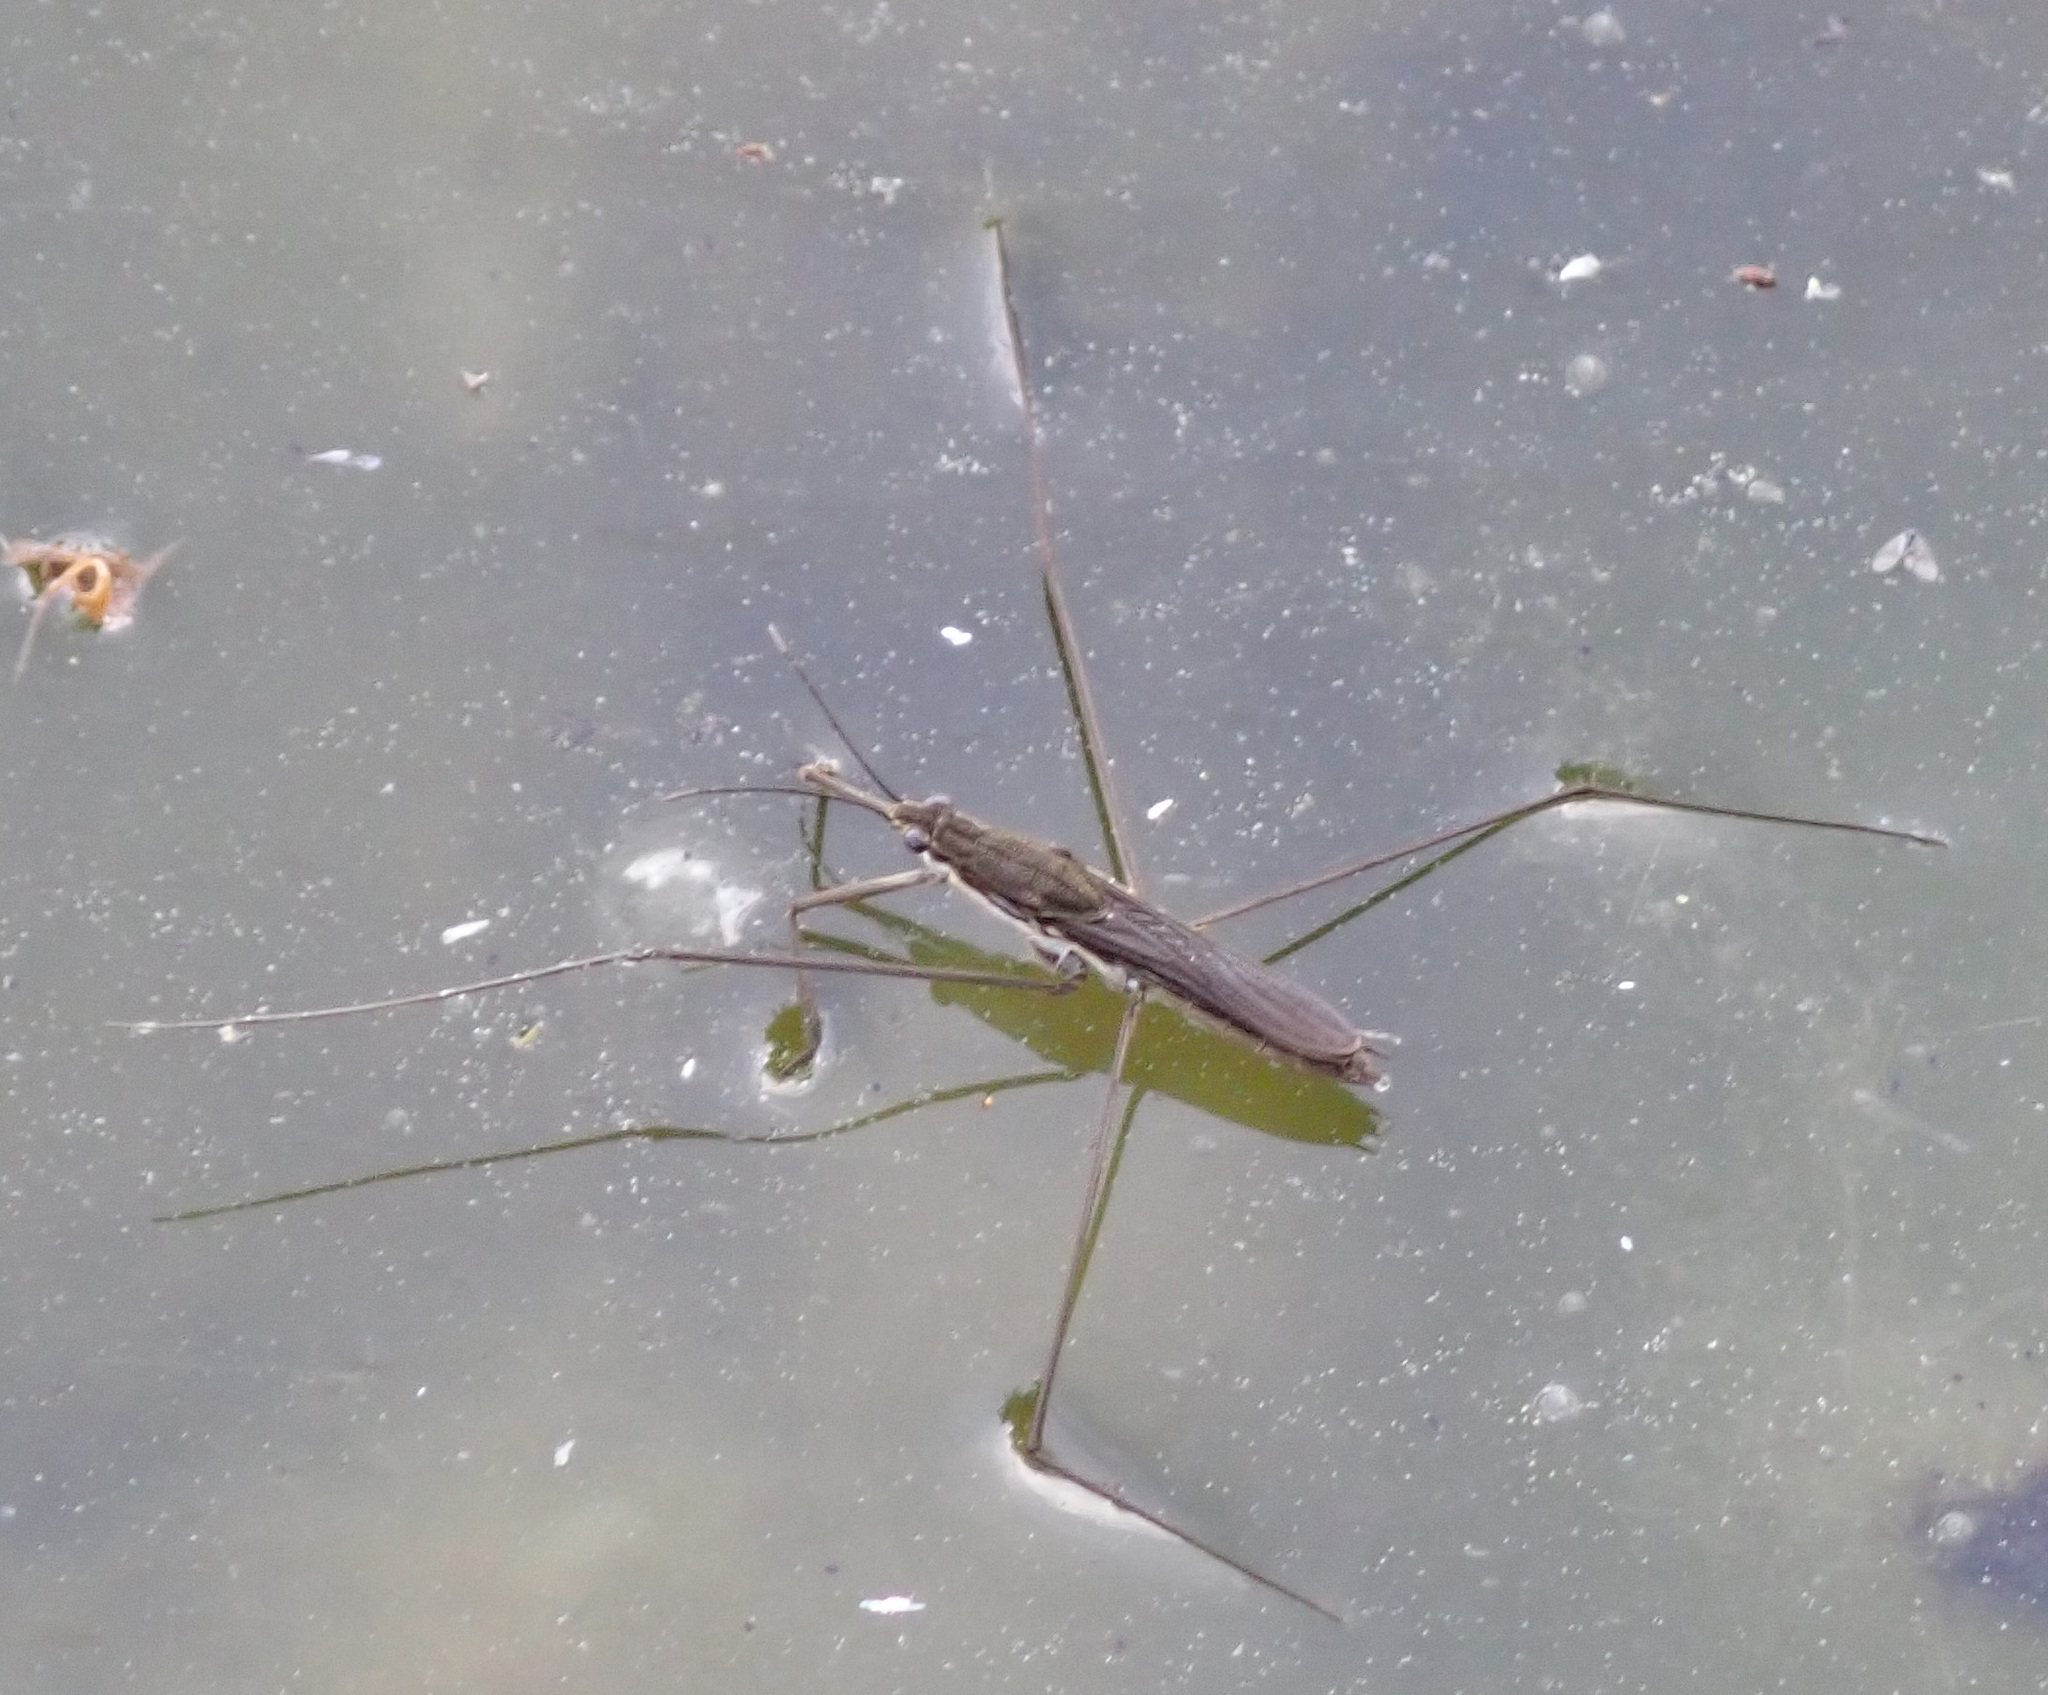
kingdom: Animalia
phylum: Arthropoda
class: Insecta
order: Hemiptera
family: Gerridae
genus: Aquarius
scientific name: Aquarius paludum
